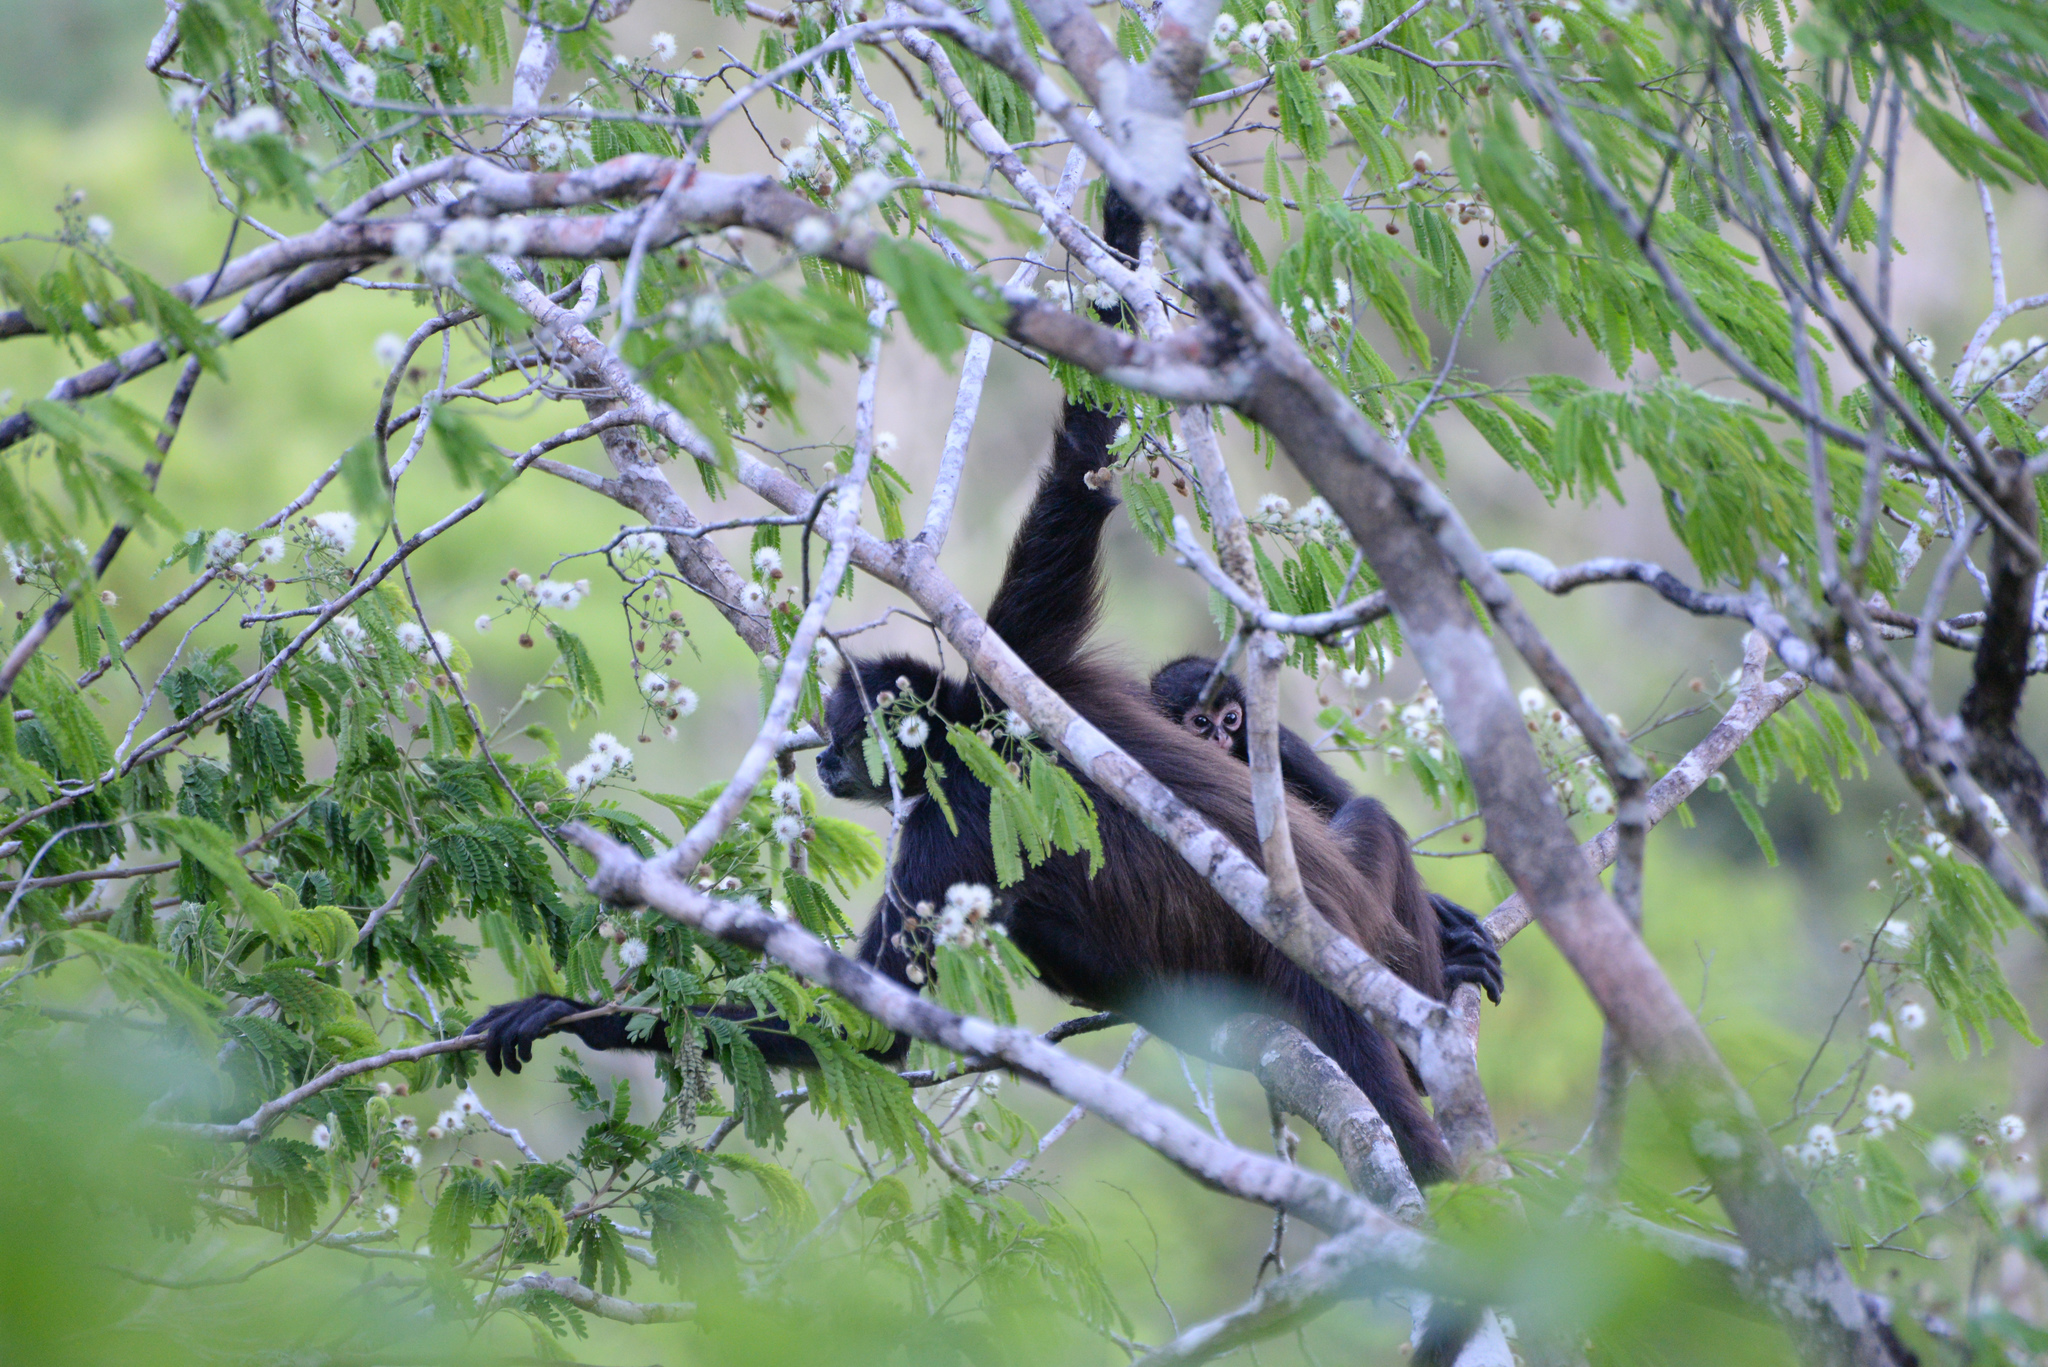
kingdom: Animalia
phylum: Chordata
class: Mammalia
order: Primates
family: Atelidae
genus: Ateles
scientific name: Ateles geoffroyi
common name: Black-handed spider monkey
